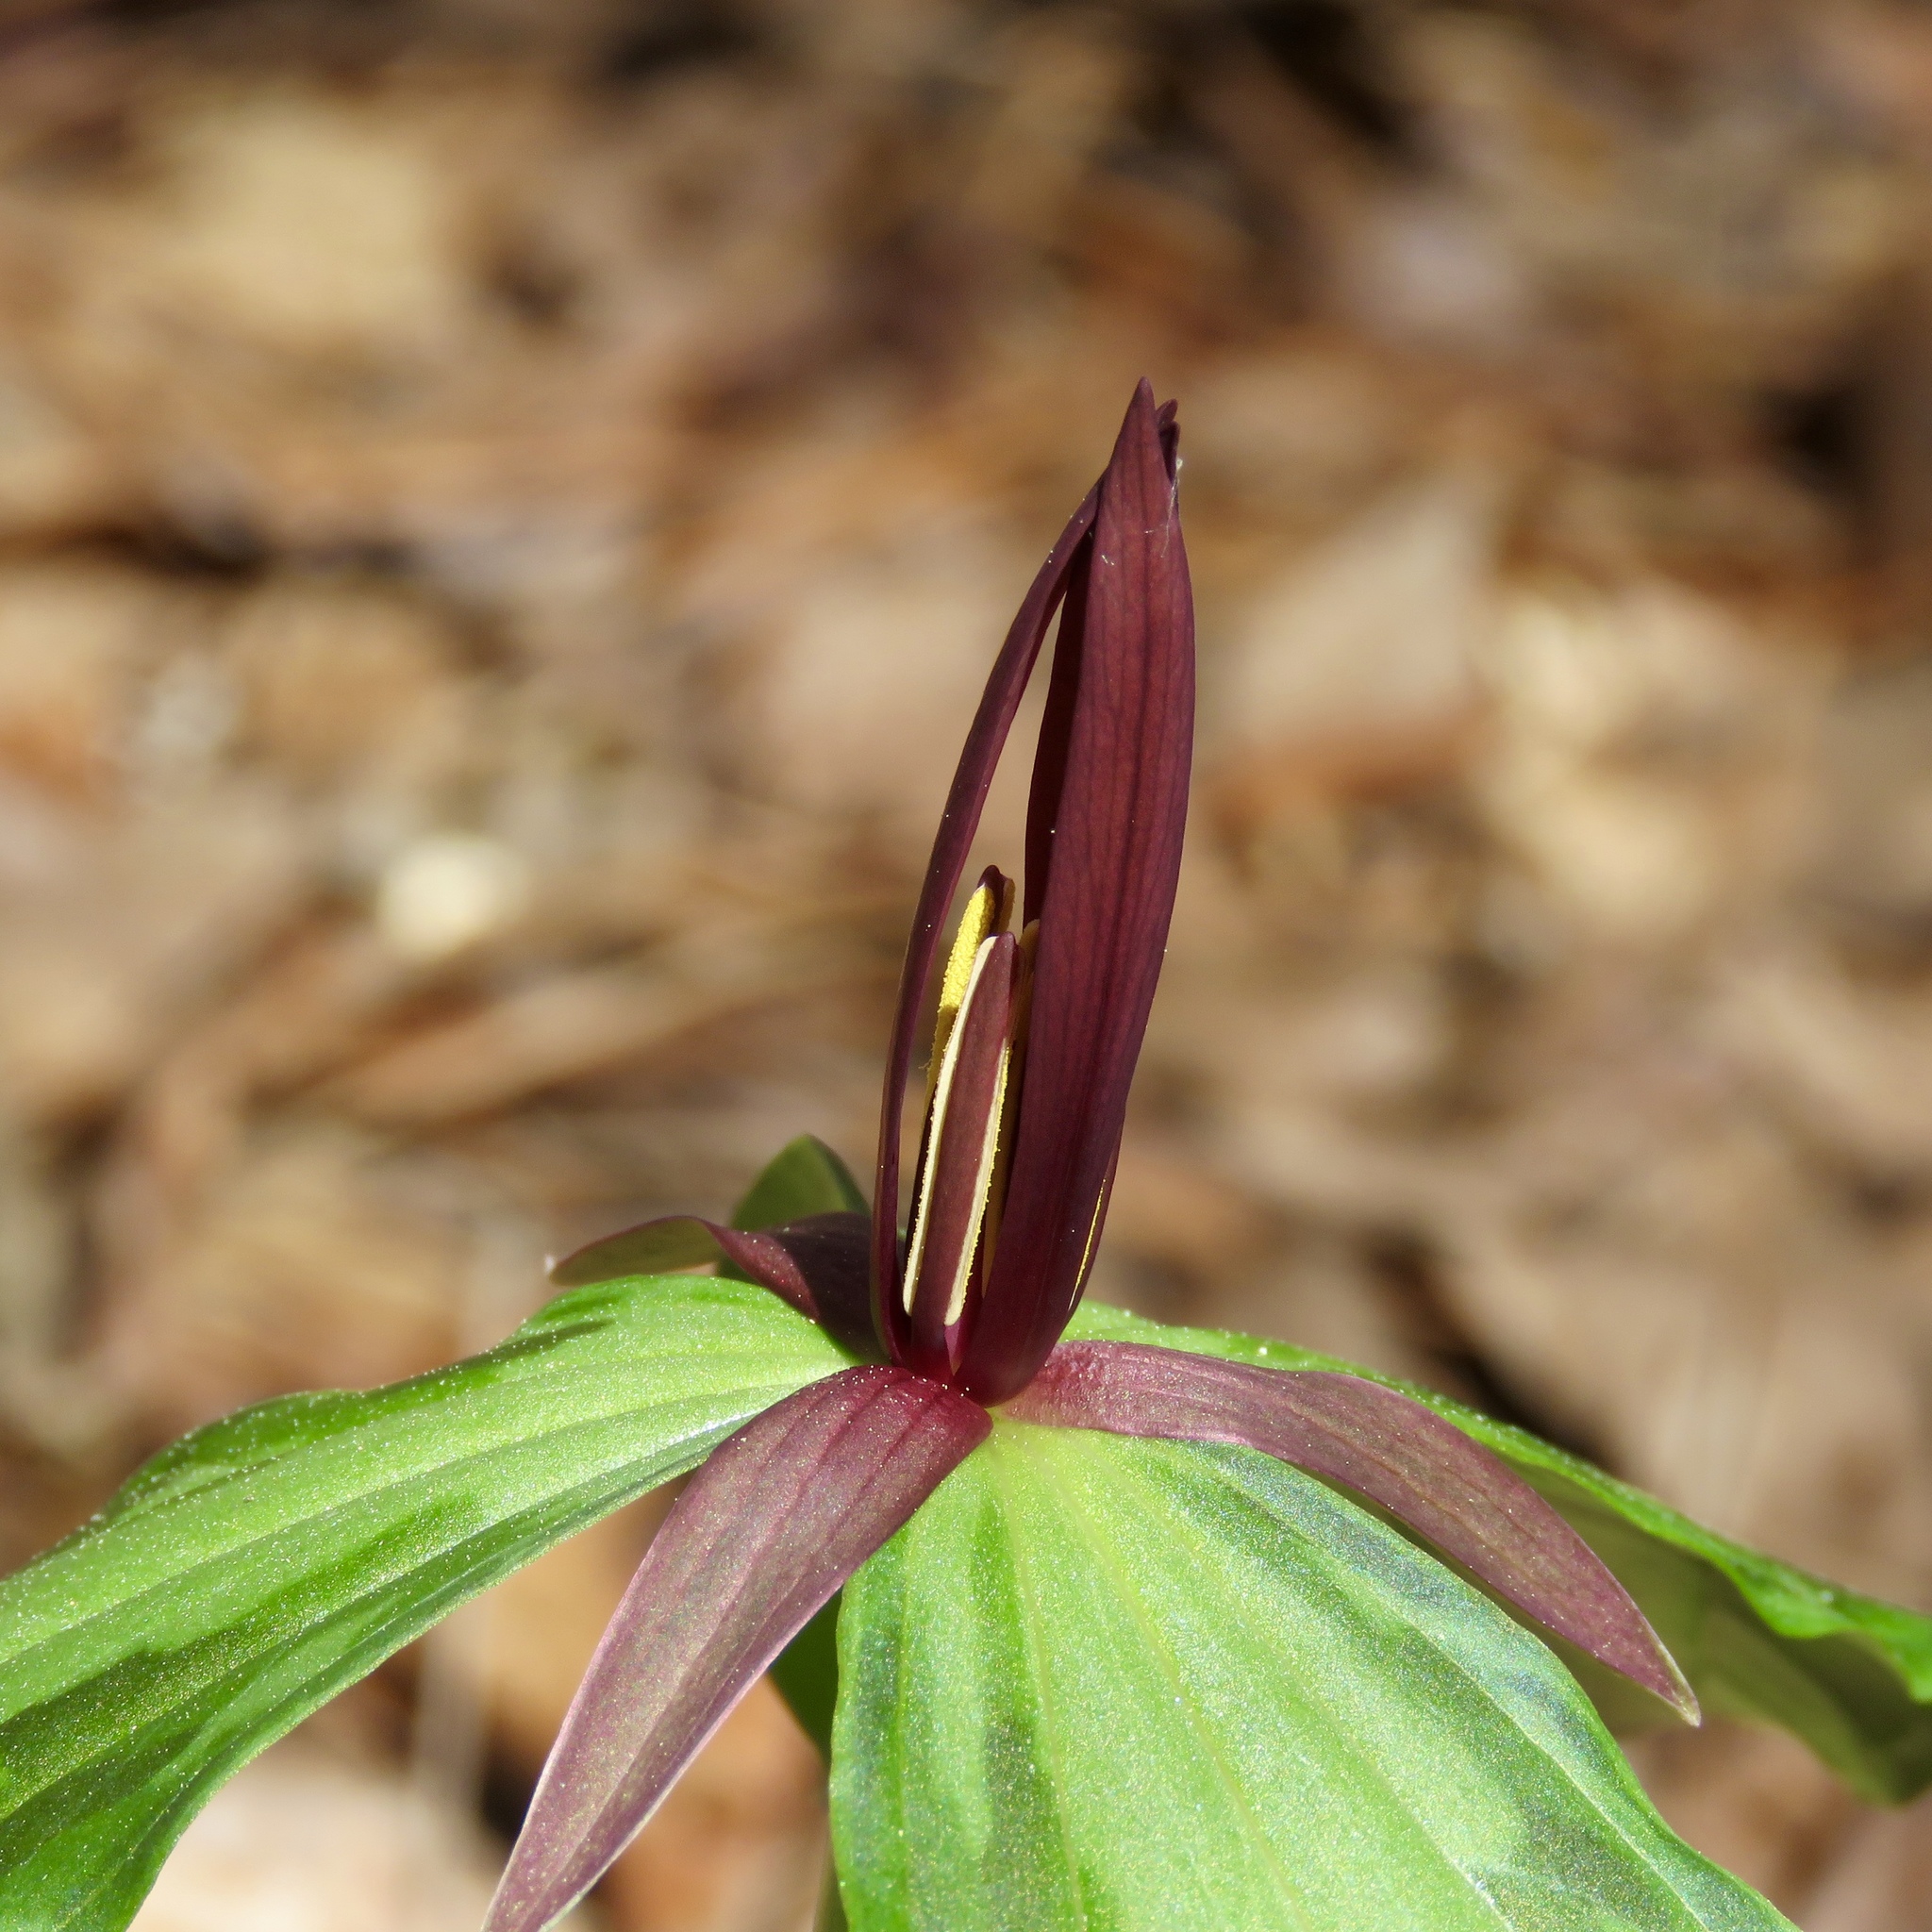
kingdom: Plantae
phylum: Tracheophyta
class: Liliopsida
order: Liliales
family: Melanthiaceae
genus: Trillium
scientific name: Trillium gracile
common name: Graceful trillium
